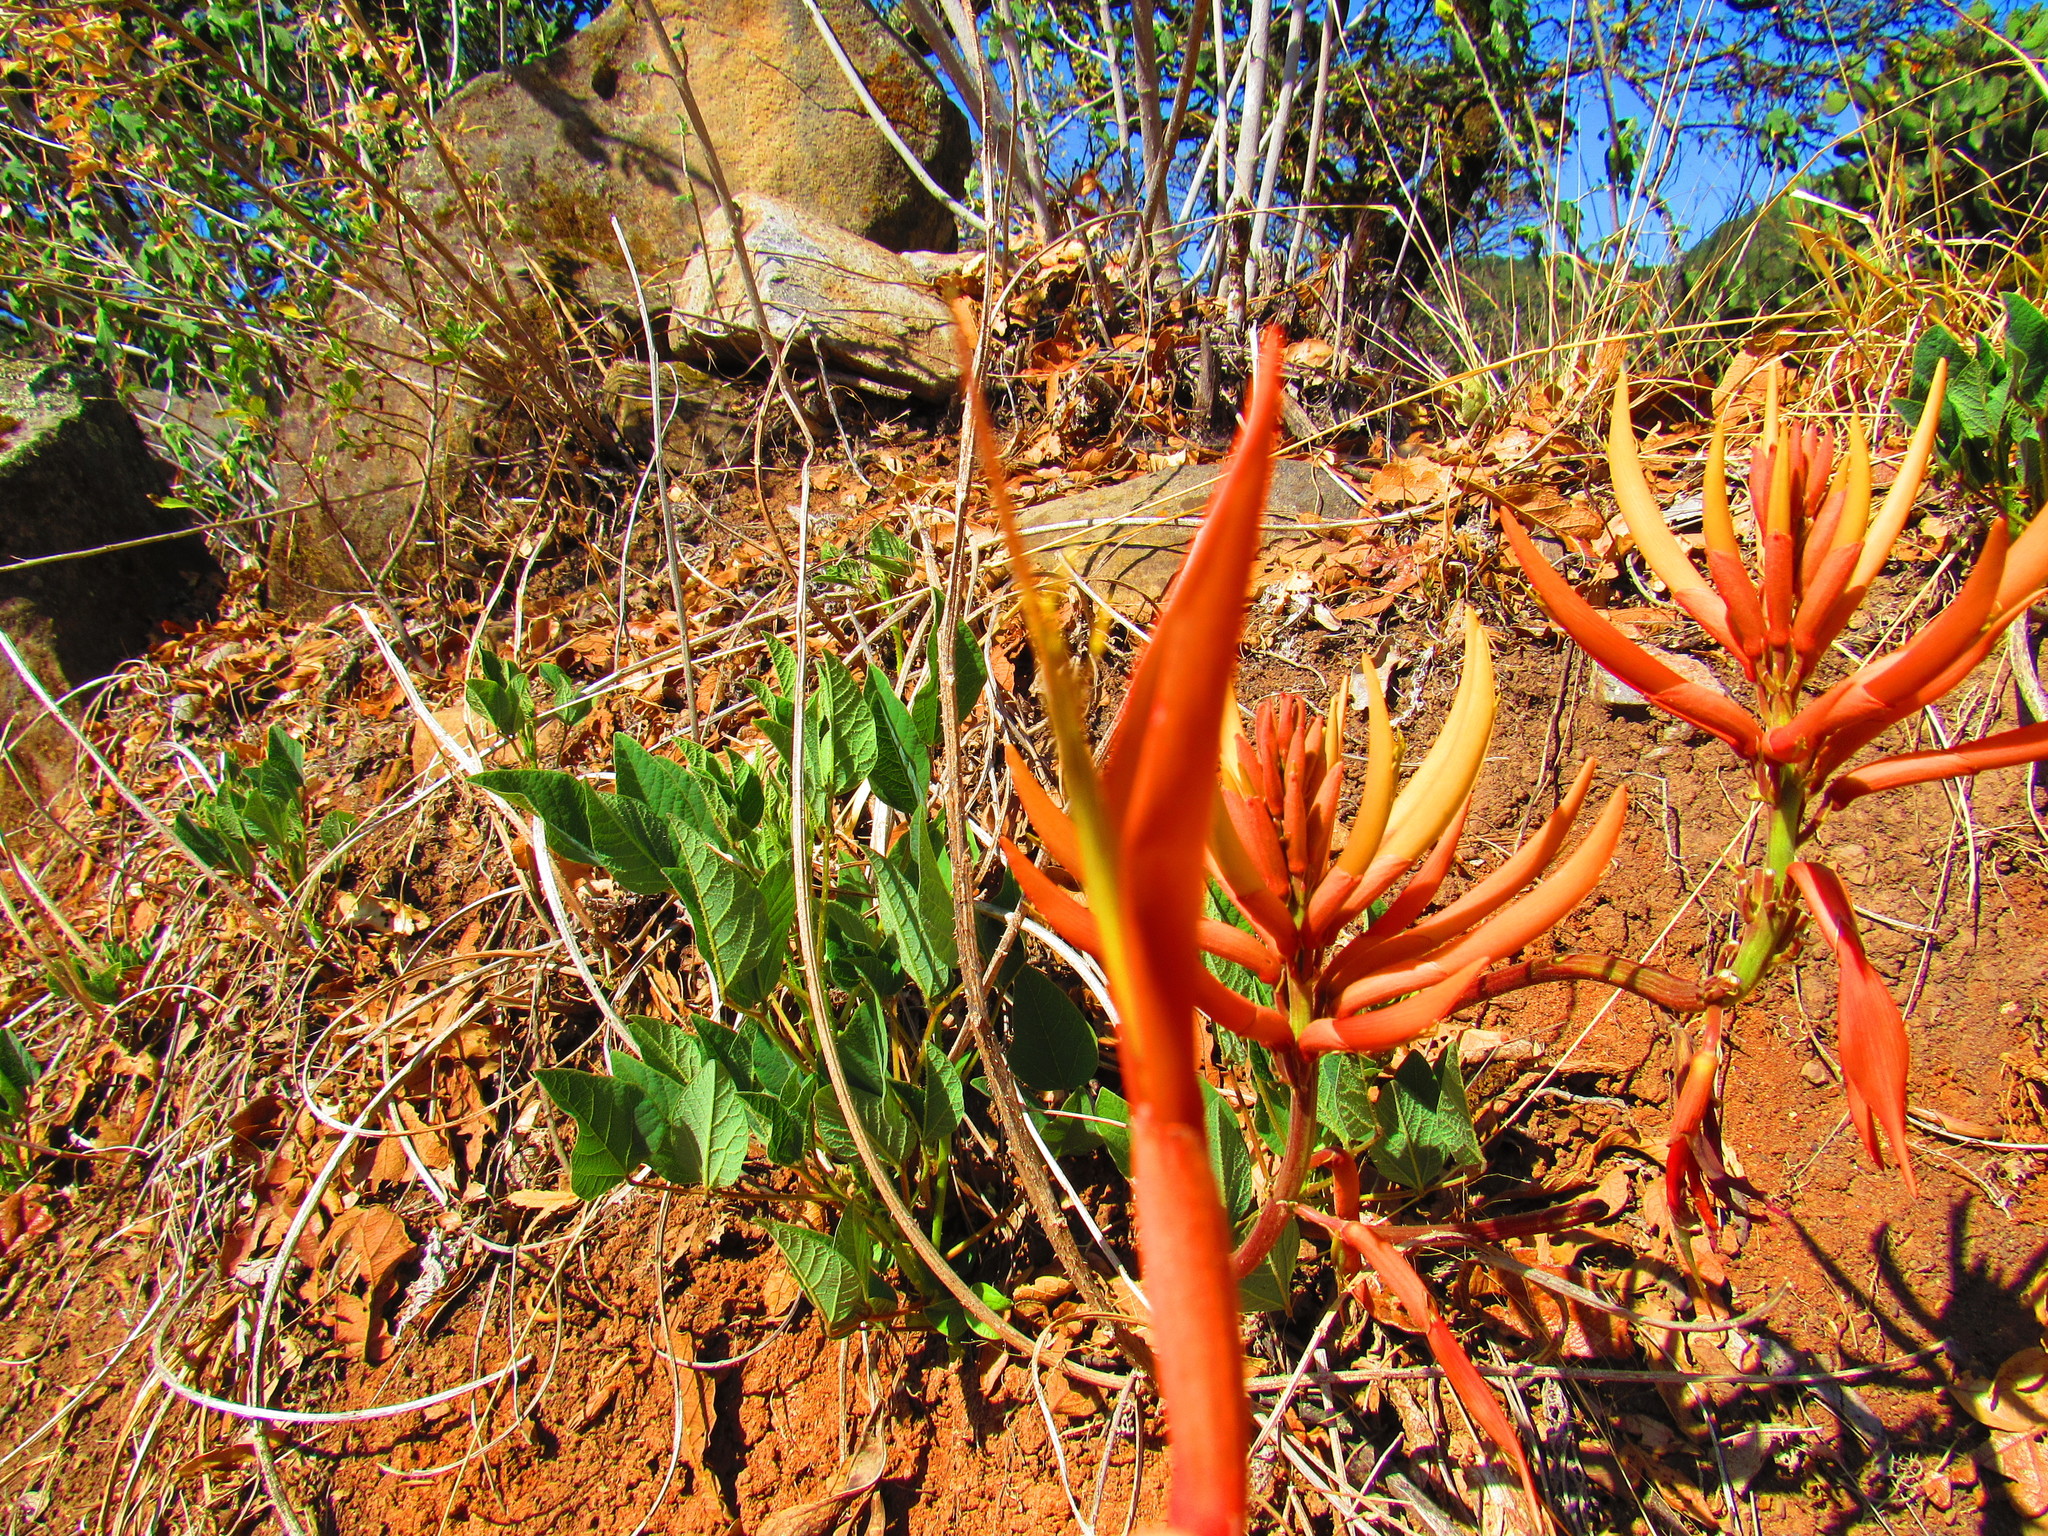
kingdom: Plantae
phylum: Tracheophyta
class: Magnoliopsida
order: Fabales
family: Fabaceae
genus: Erythrina
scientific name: Erythrina leptorhiza
